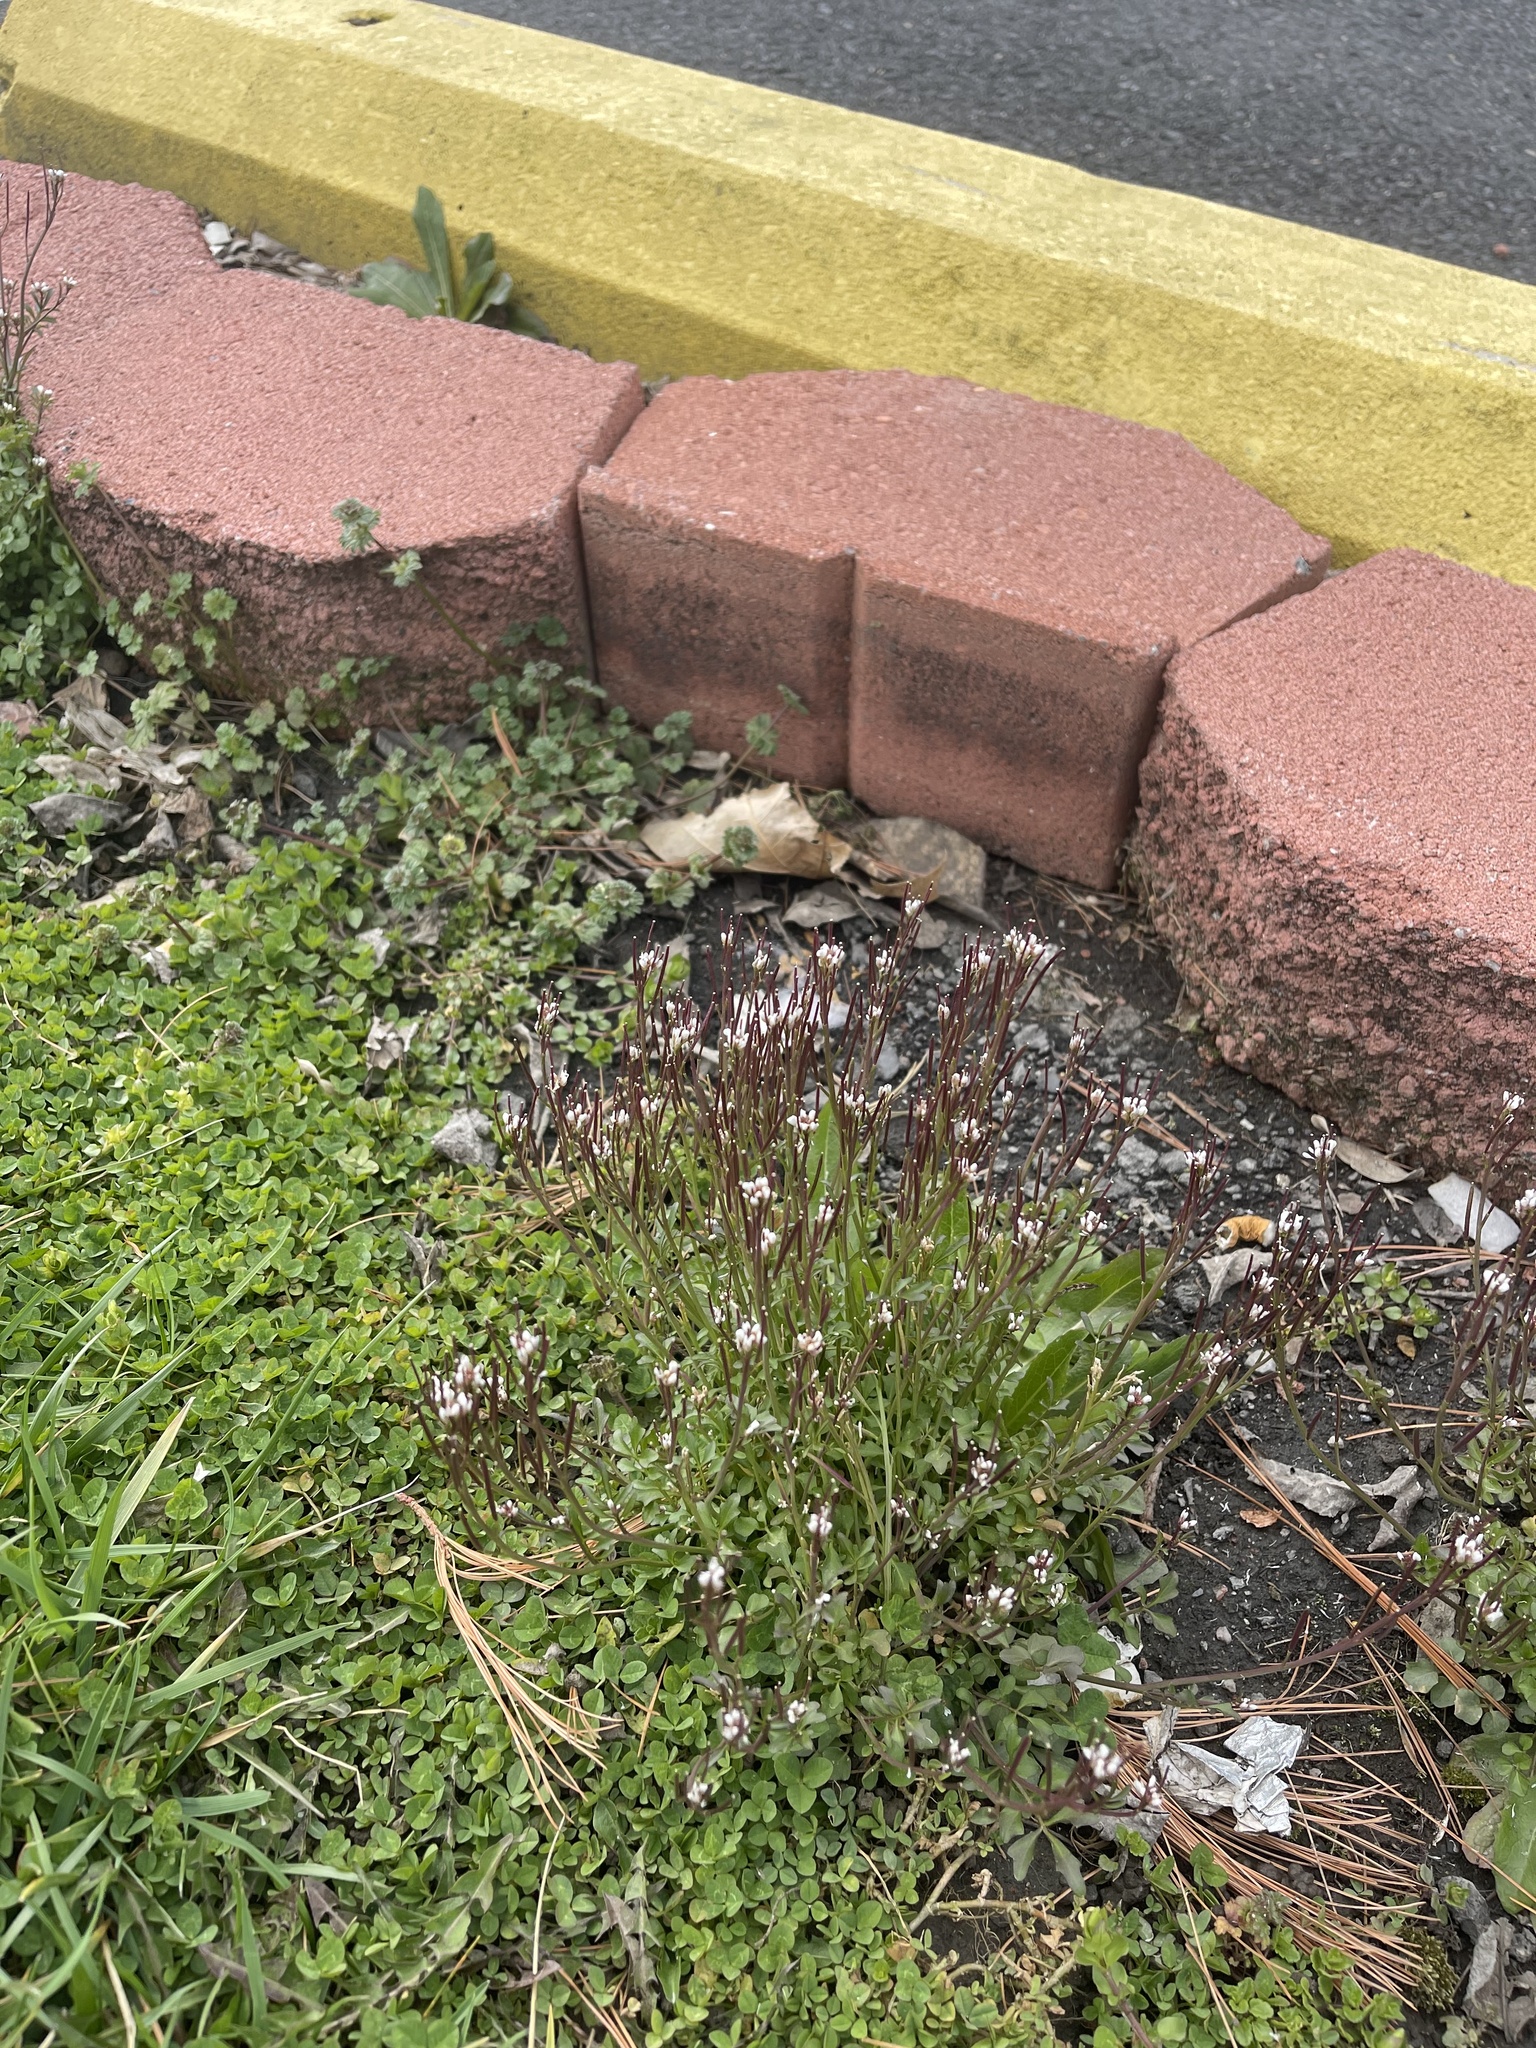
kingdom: Plantae
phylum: Tracheophyta
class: Magnoliopsida
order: Brassicales
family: Brassicaceae
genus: Cardamine
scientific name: Cardamine hirsuta
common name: Hairy bittercress
